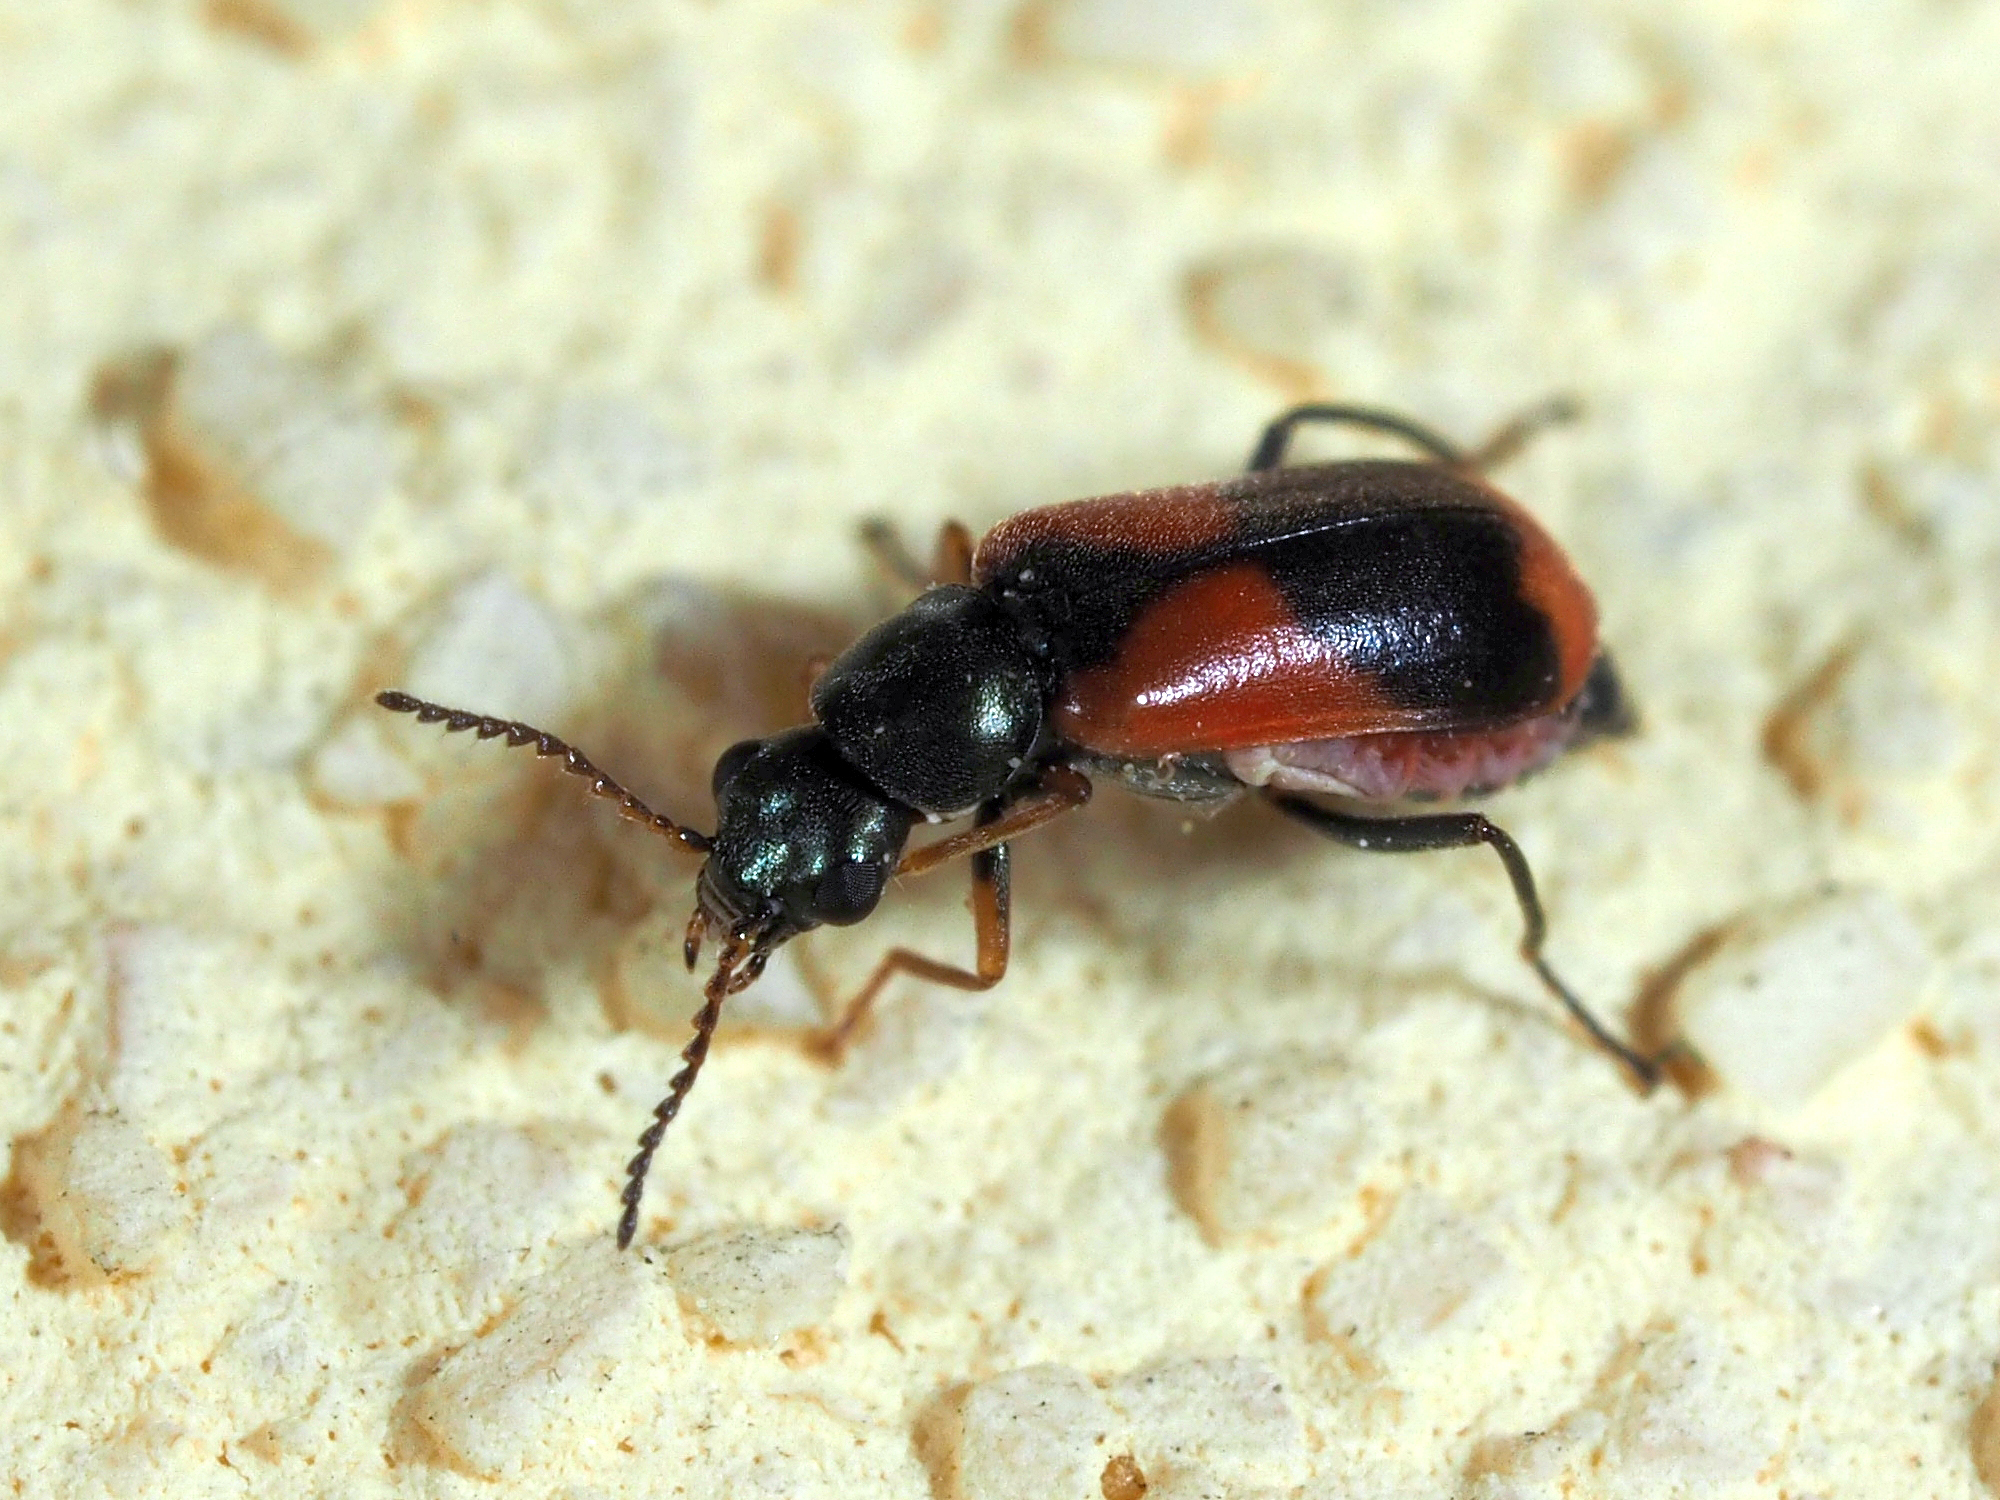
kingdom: Animalia
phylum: Arthropoda
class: Insecta
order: Coleoptera
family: Melyridae
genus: Anthocomus
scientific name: Anthocomus equestris
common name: Black-banded soft-winged flower beetle
